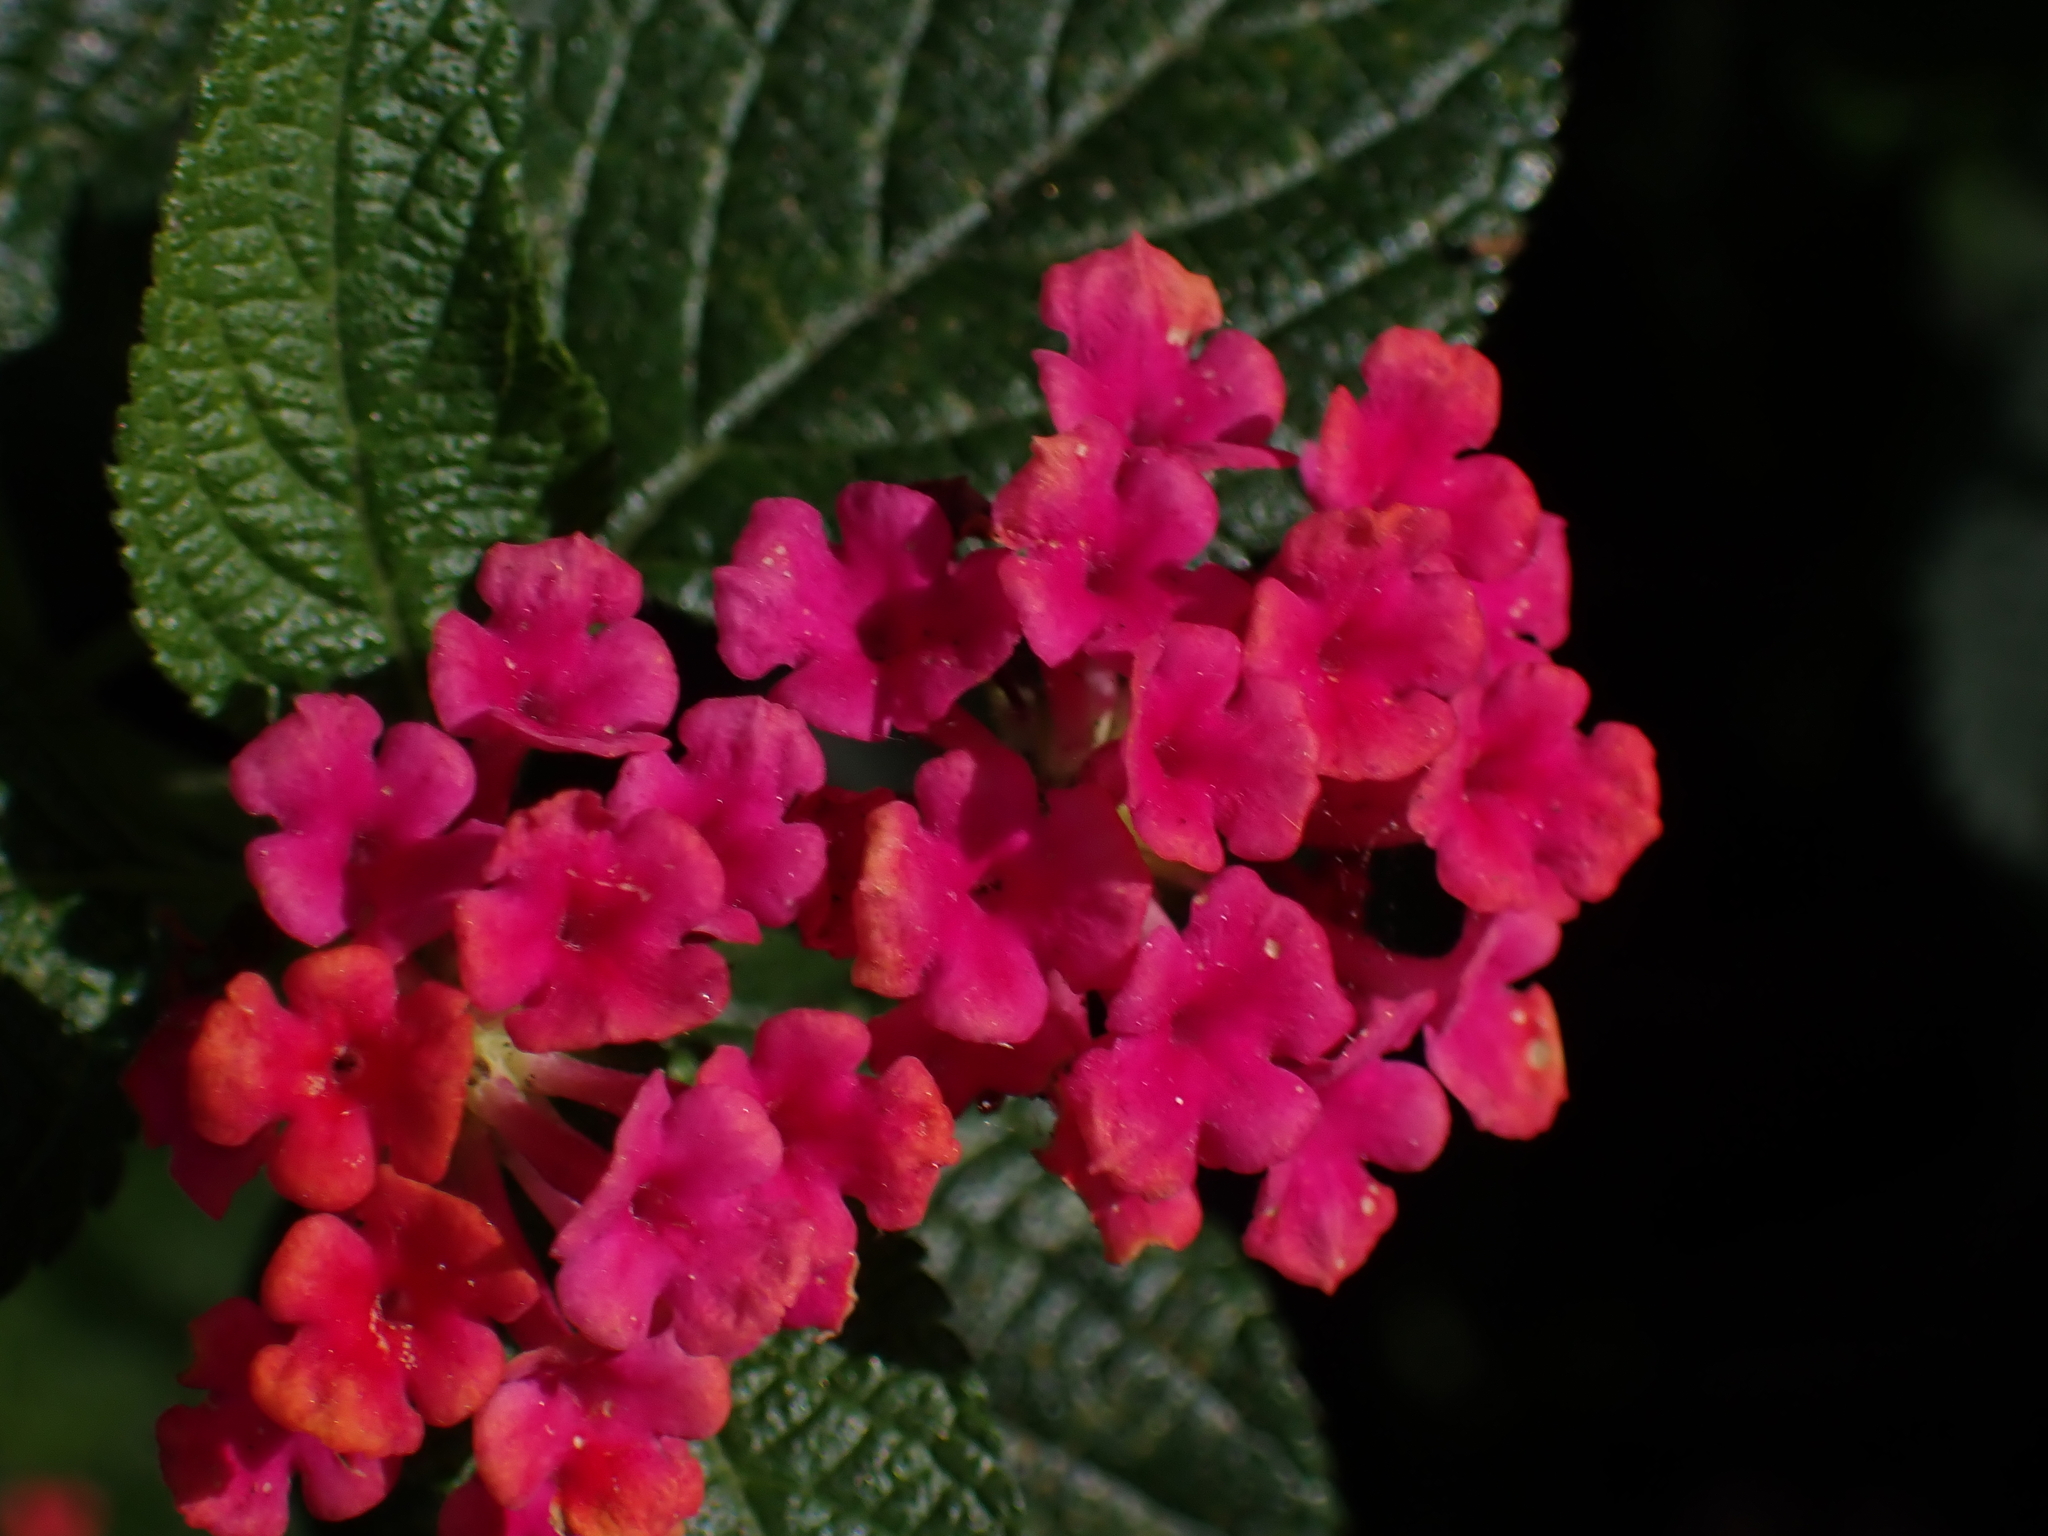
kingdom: Plantae
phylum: Tracheophyta
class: Magnoliopsida
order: Lamiales
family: Verbenaceae
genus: Lantana
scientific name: Lantana camara
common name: Lantana
